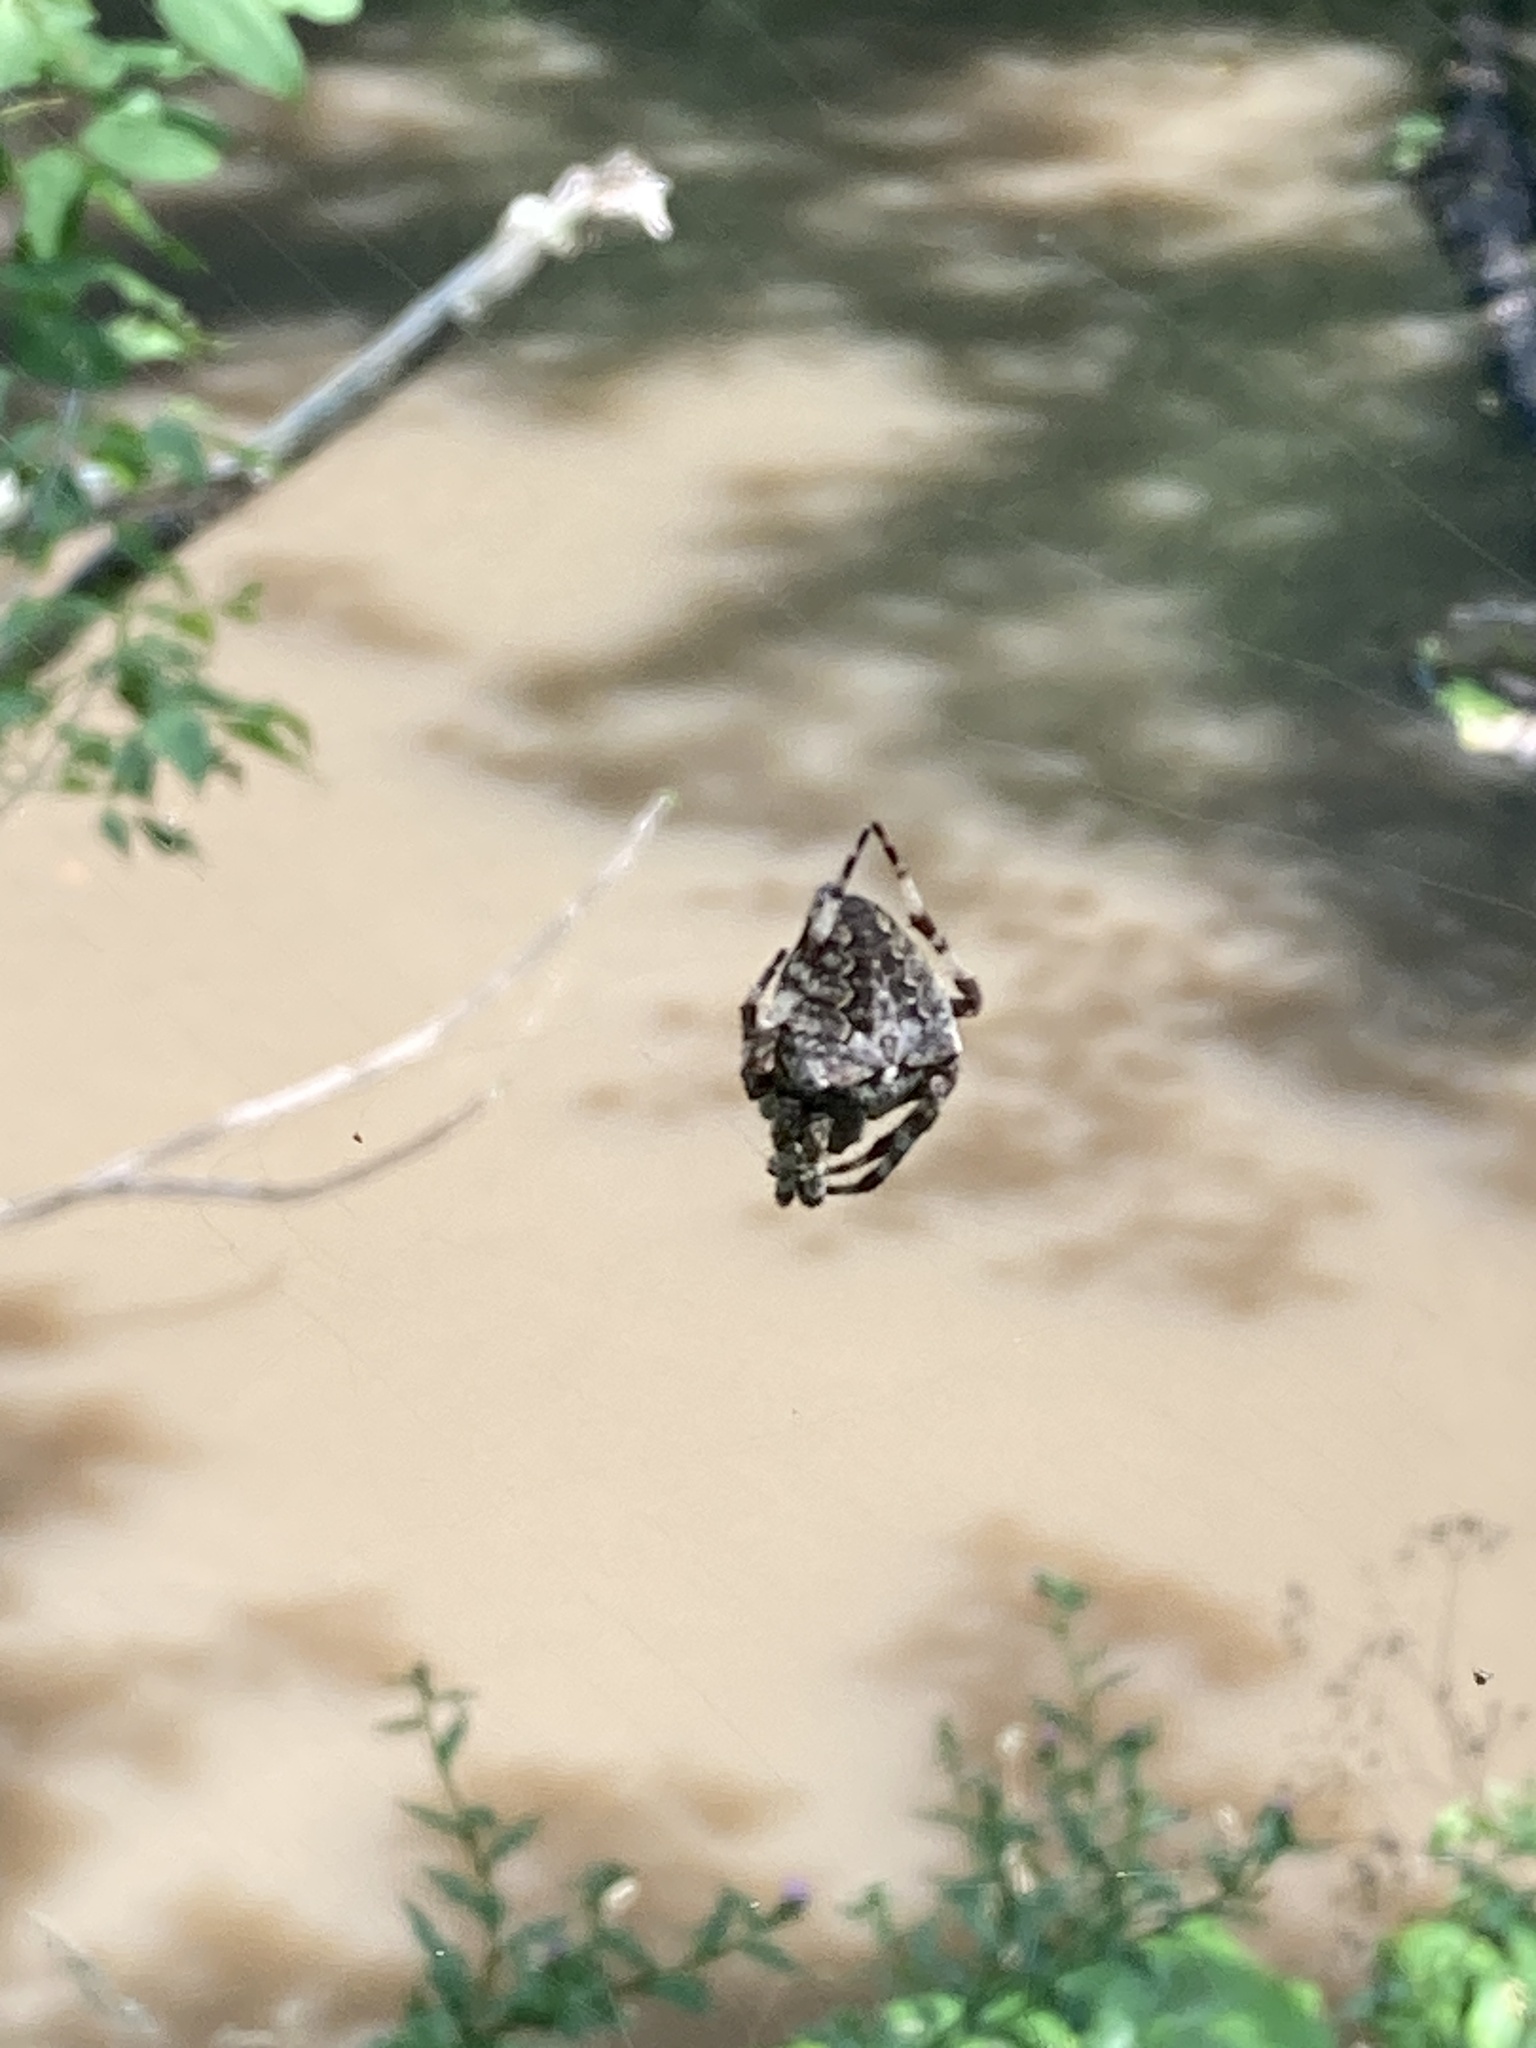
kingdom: Animalia
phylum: Arthropoda
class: Arachnida
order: Araneae
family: Araneidae
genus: Araneus
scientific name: Araneus angulatus
